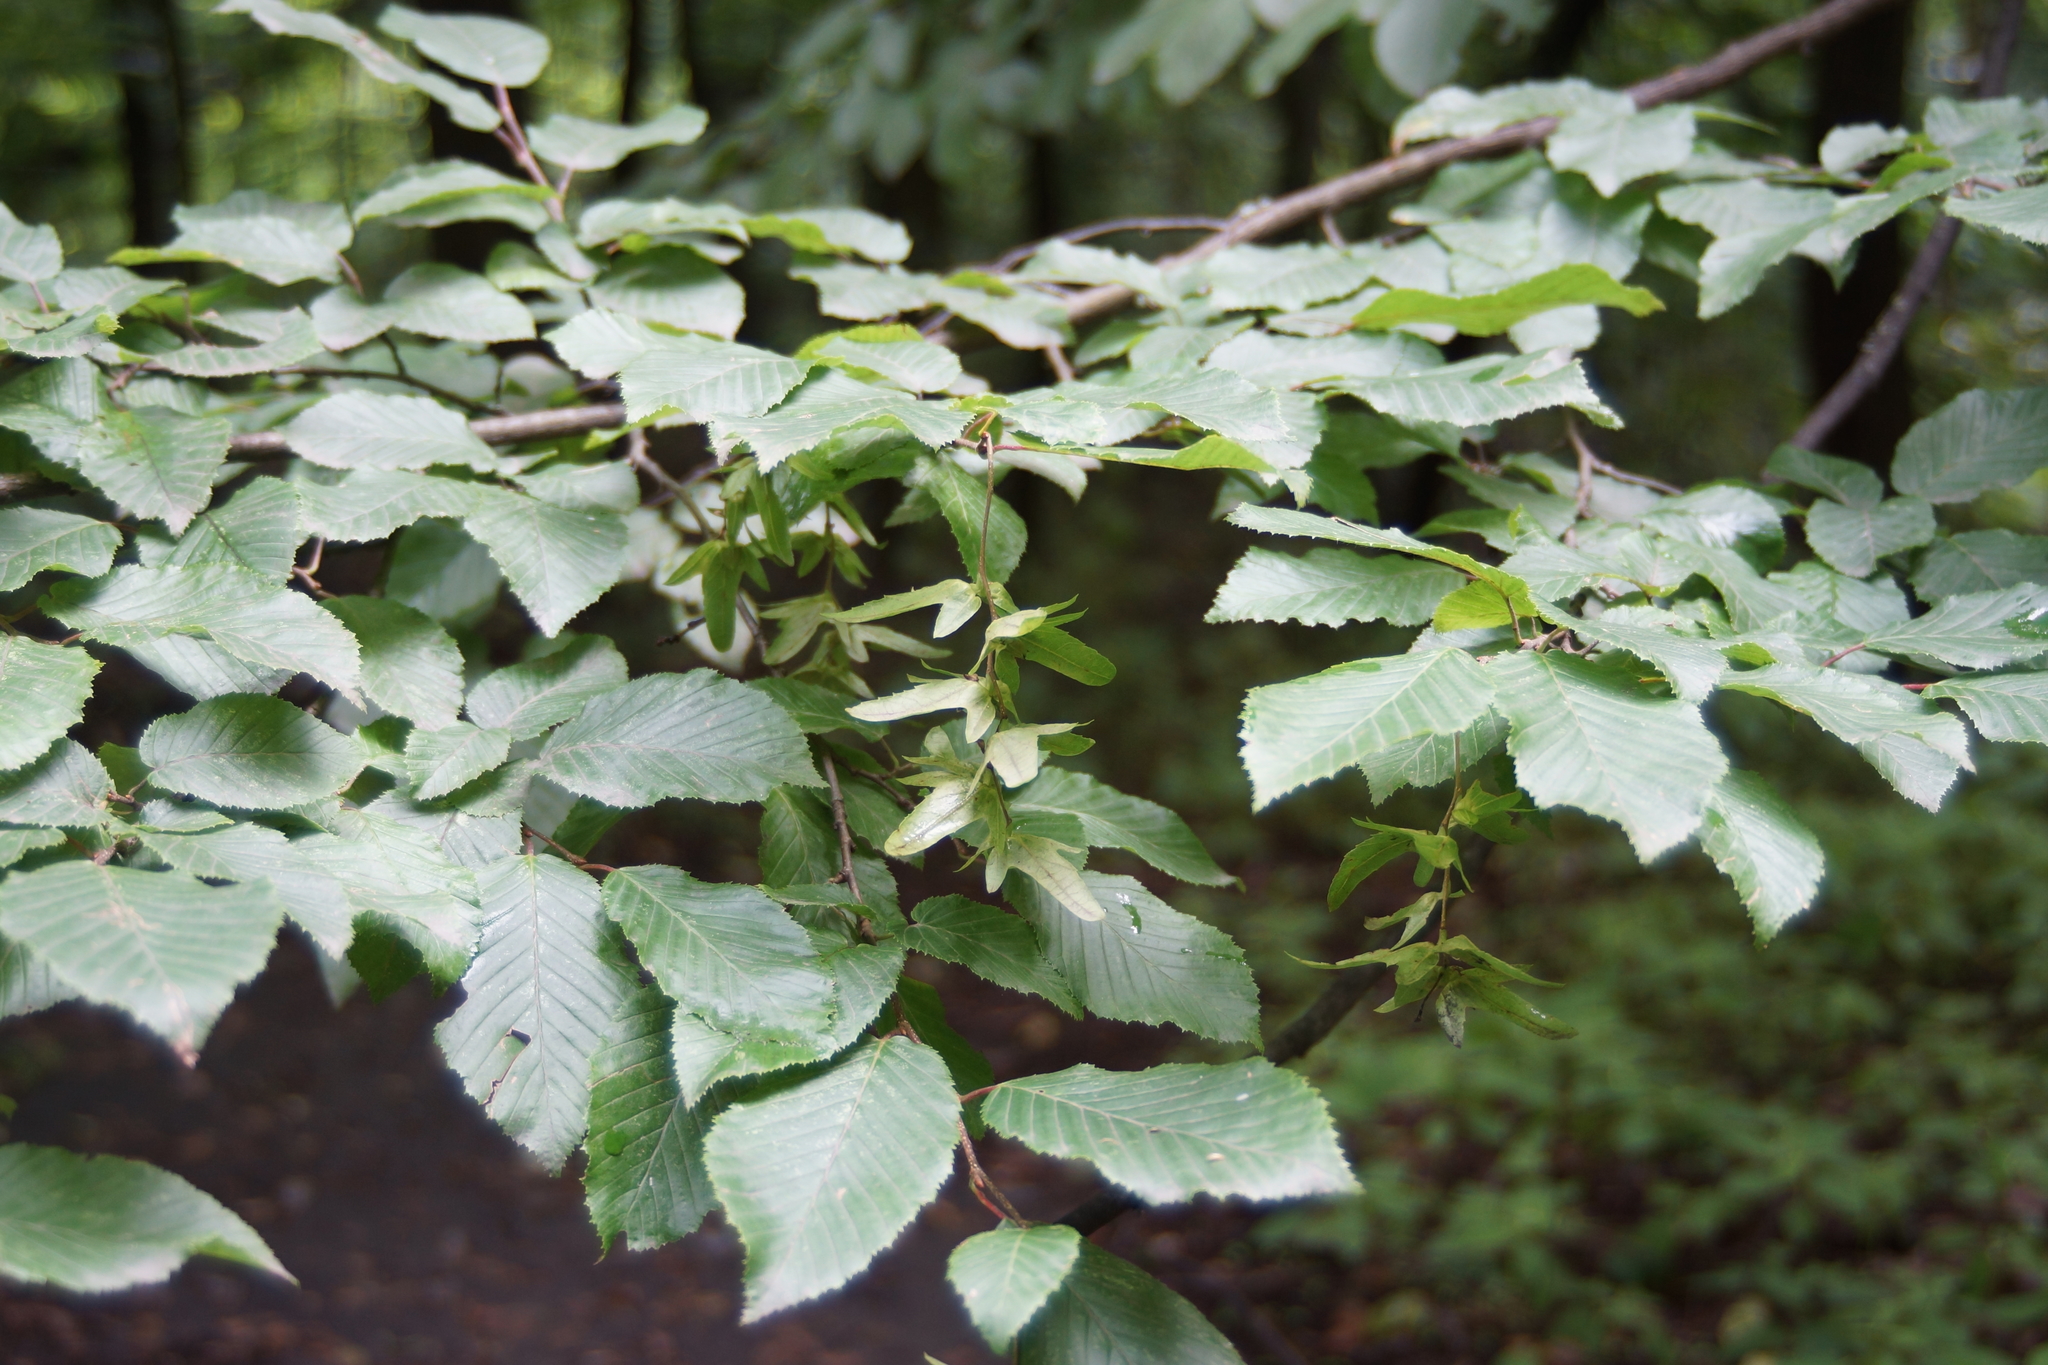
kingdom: Plantae
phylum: Tracheophyta
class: Magnoliopsida
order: Fagales
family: Betulaceae
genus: Carpinus
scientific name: Carpinus betulus
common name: Hornbeam
